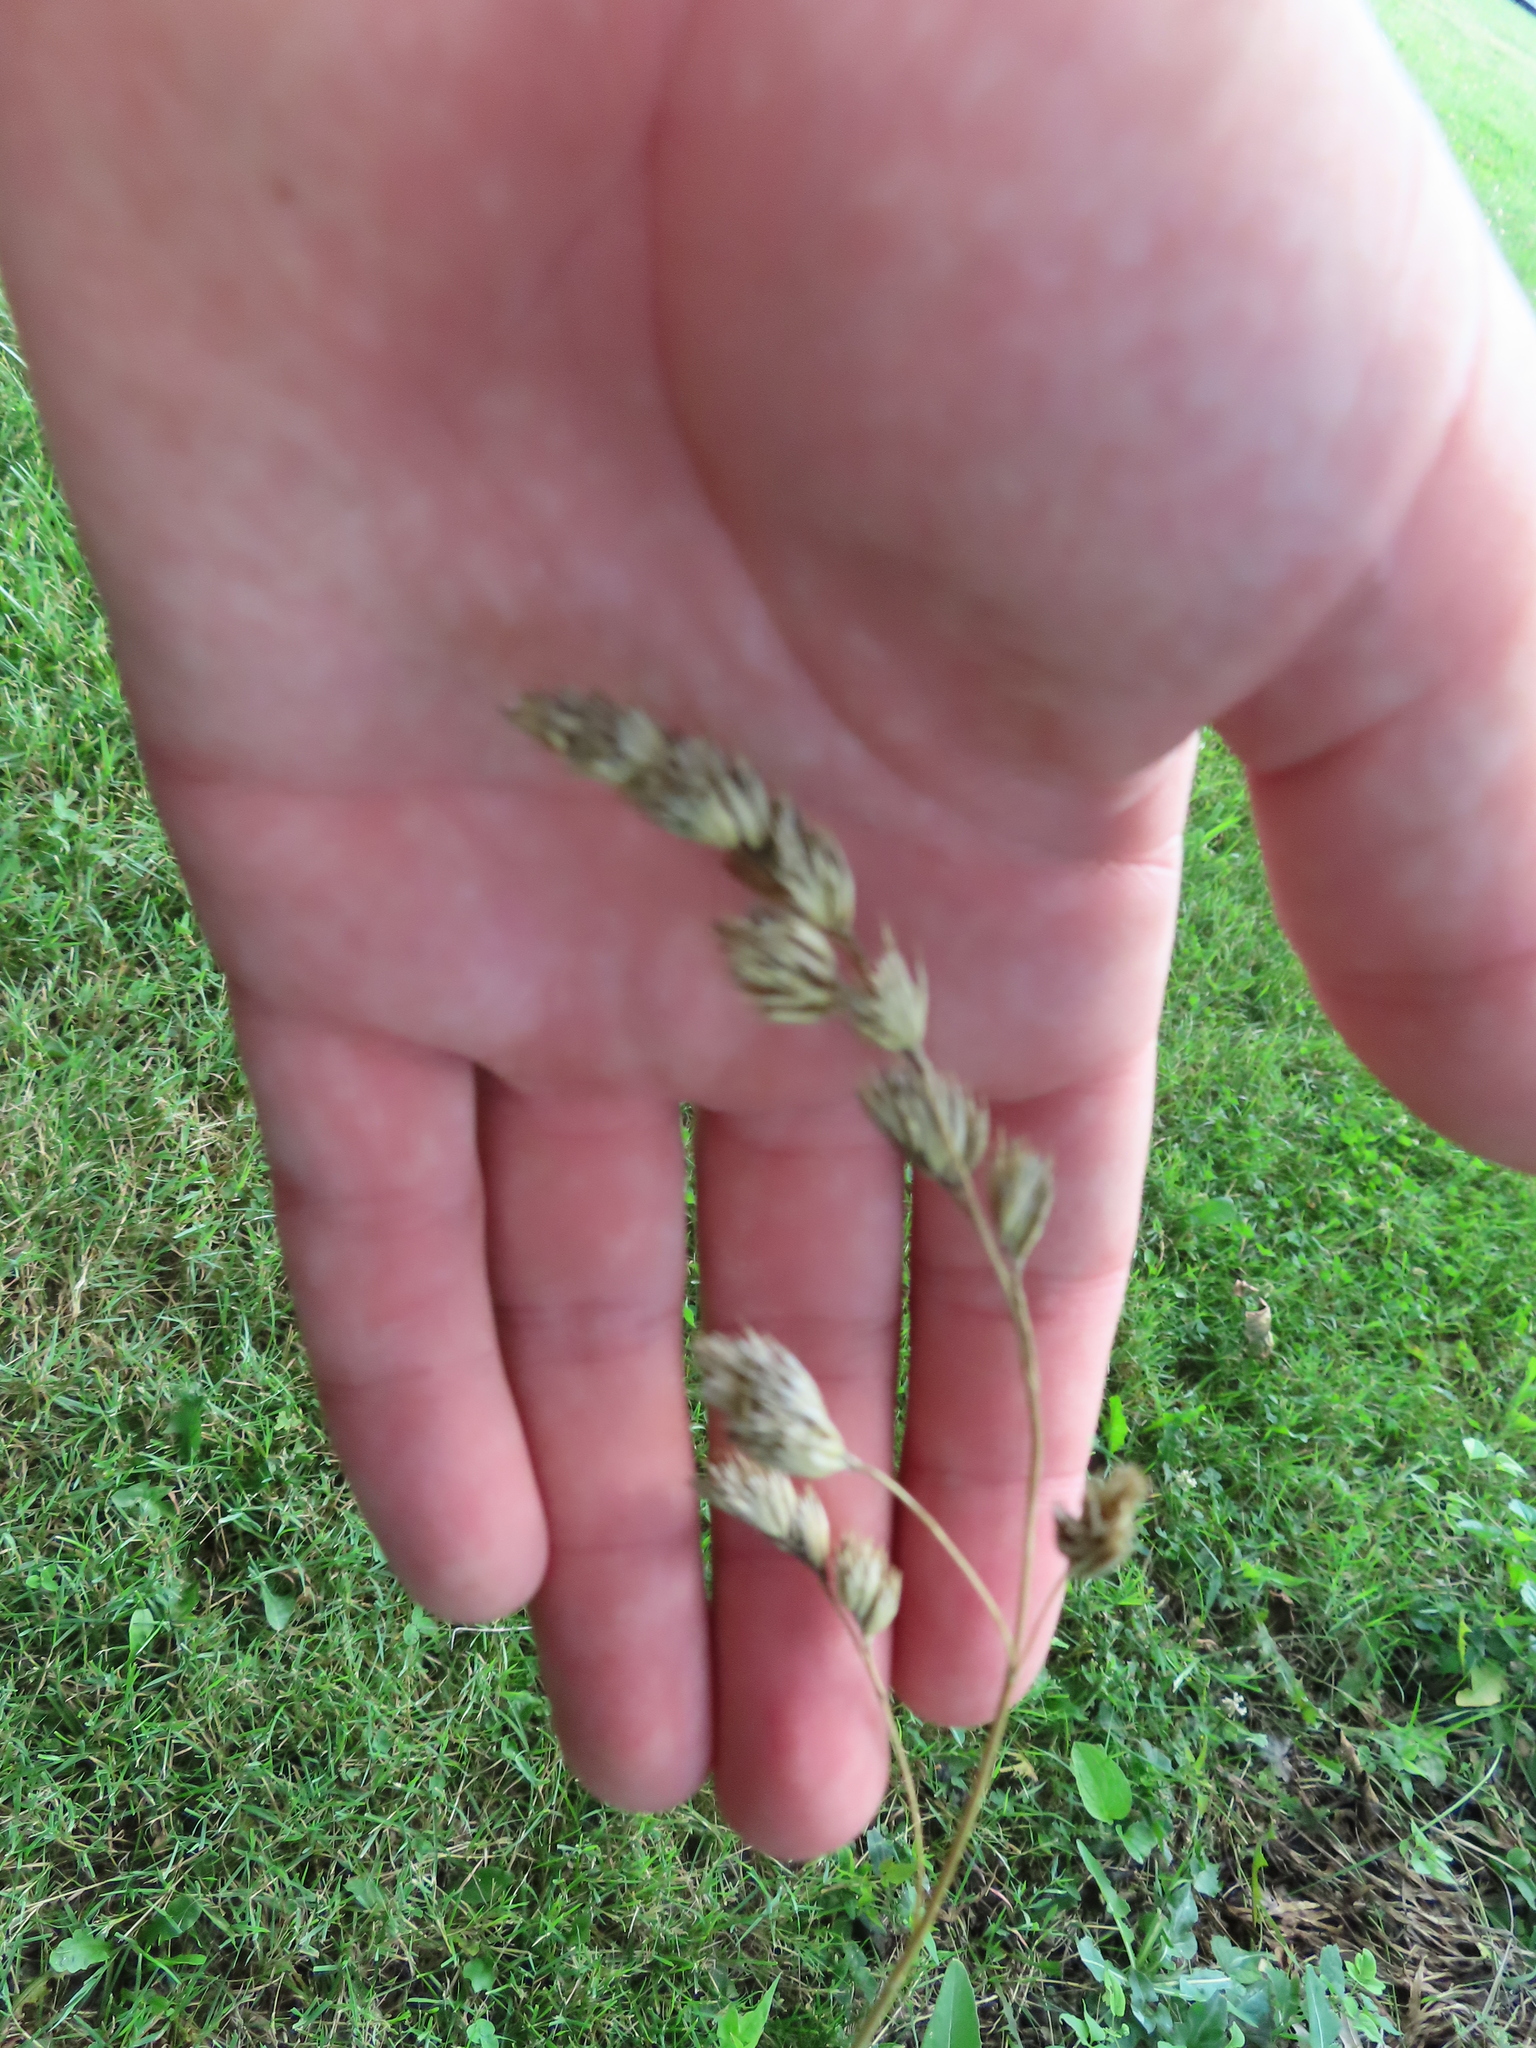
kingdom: Plantae
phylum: Tracheophyta
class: Liliopsida
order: Poales
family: Poaceae
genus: Dactylis
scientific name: Dactylis glomerata
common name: Orchardgrass
